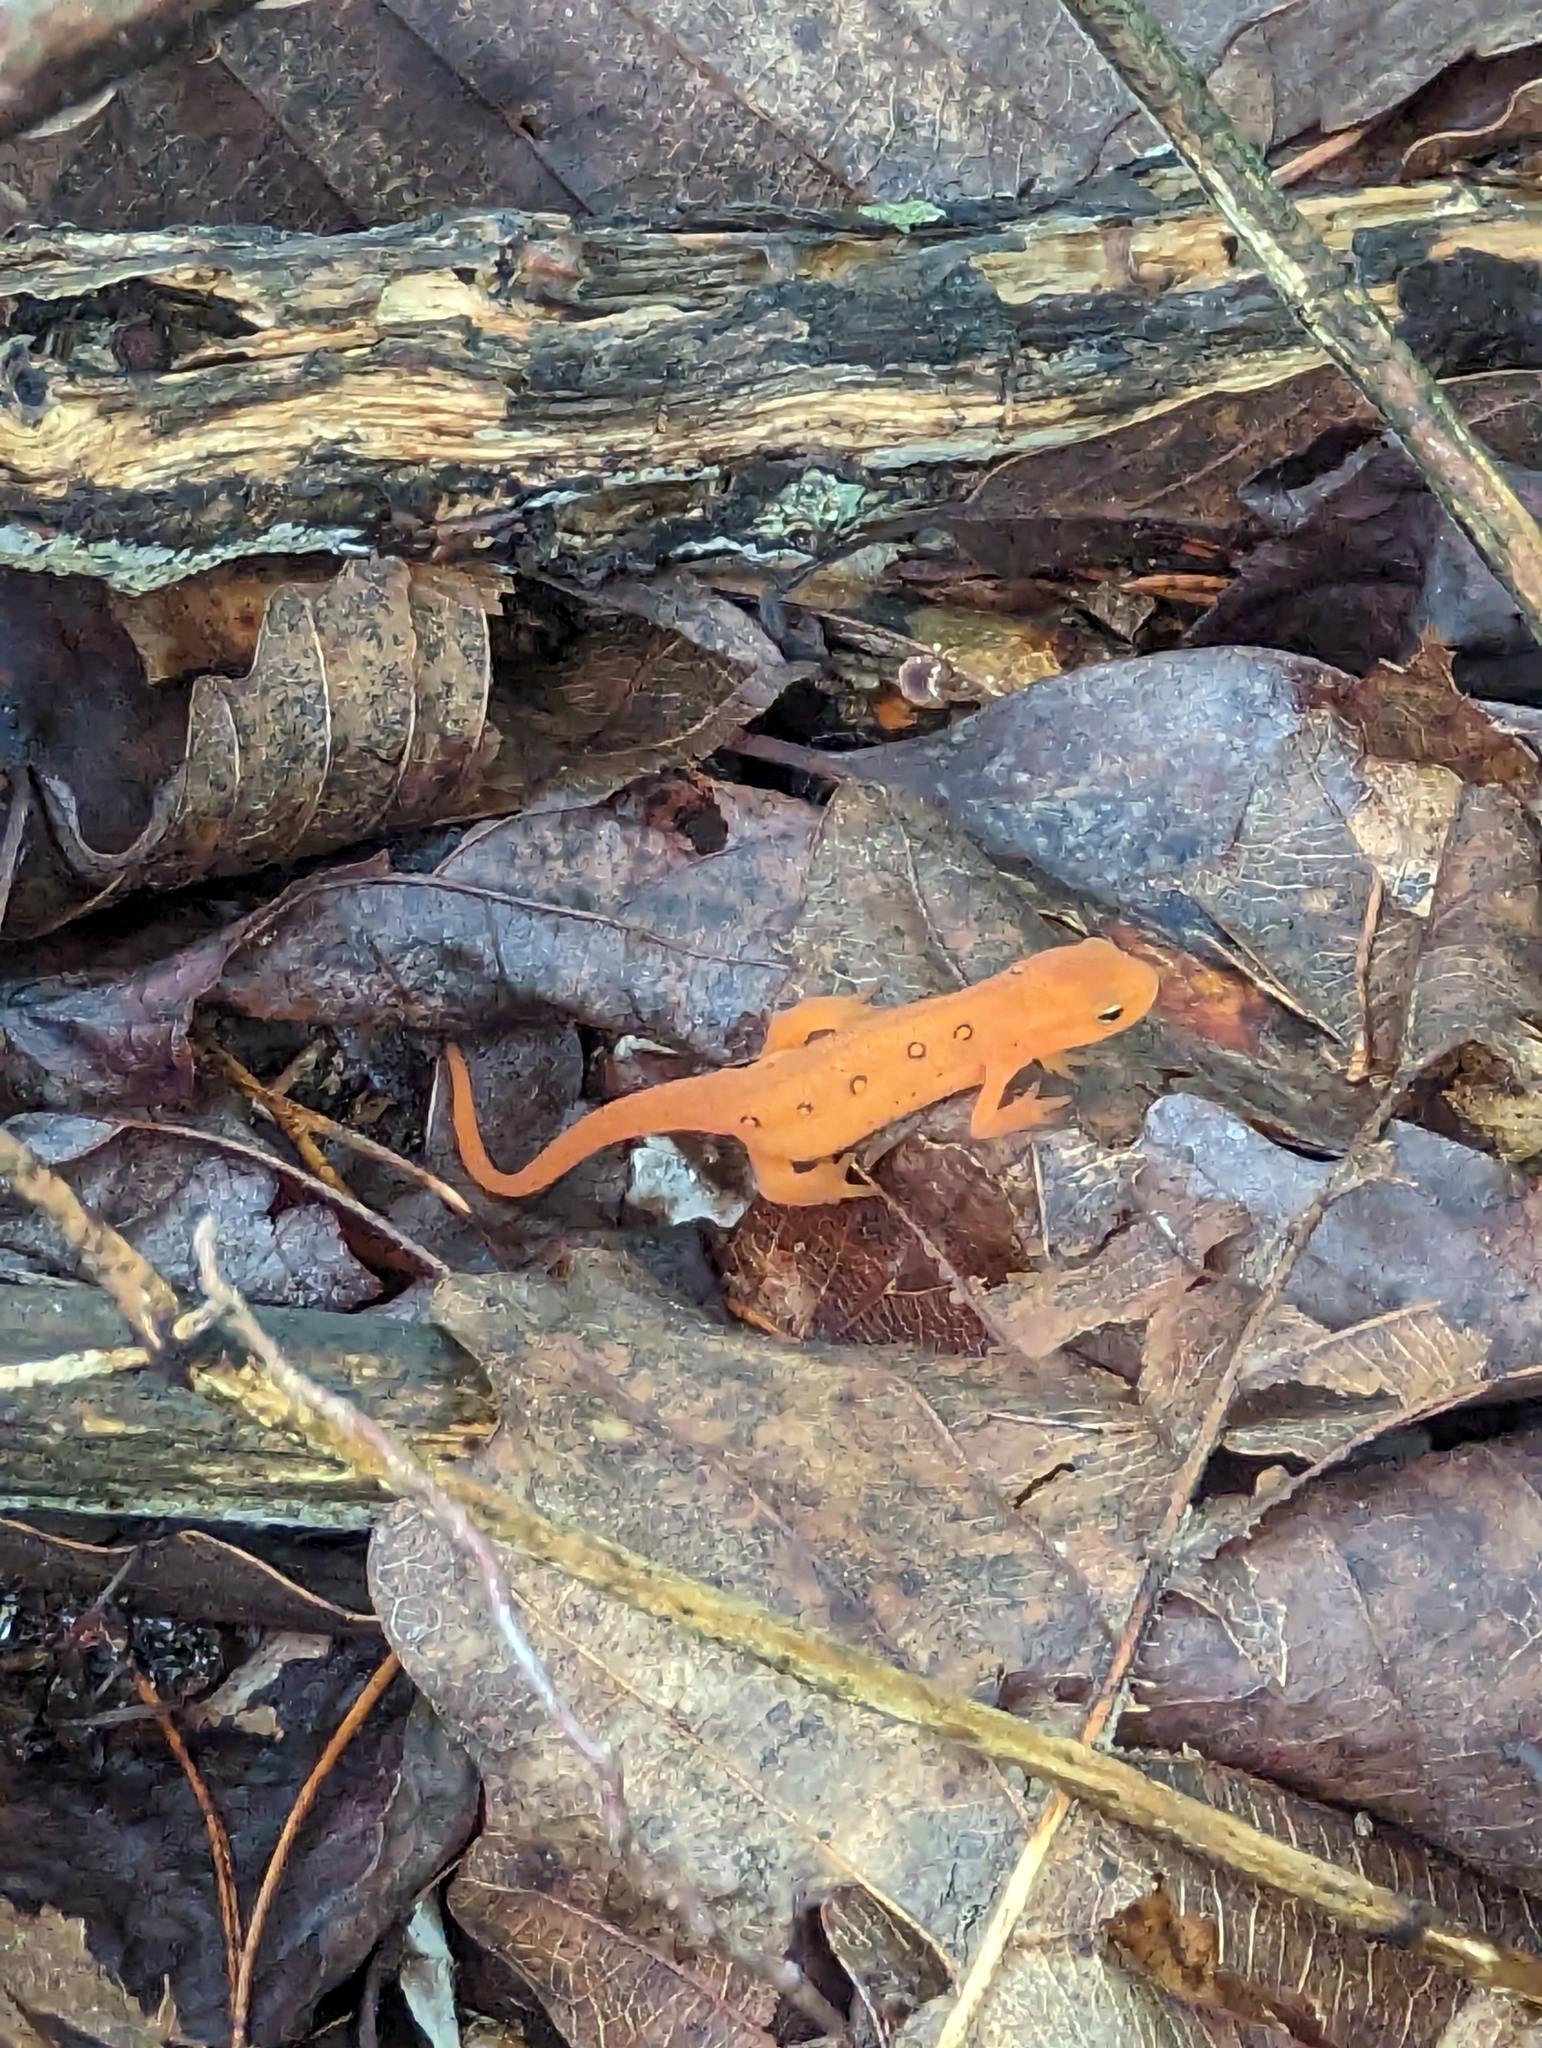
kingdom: Animalia
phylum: Chordata
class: Amphibia
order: Caudata
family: Salamandridae
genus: Notophthalmus
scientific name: Notophthalmus viridescens
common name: Eastern newt
